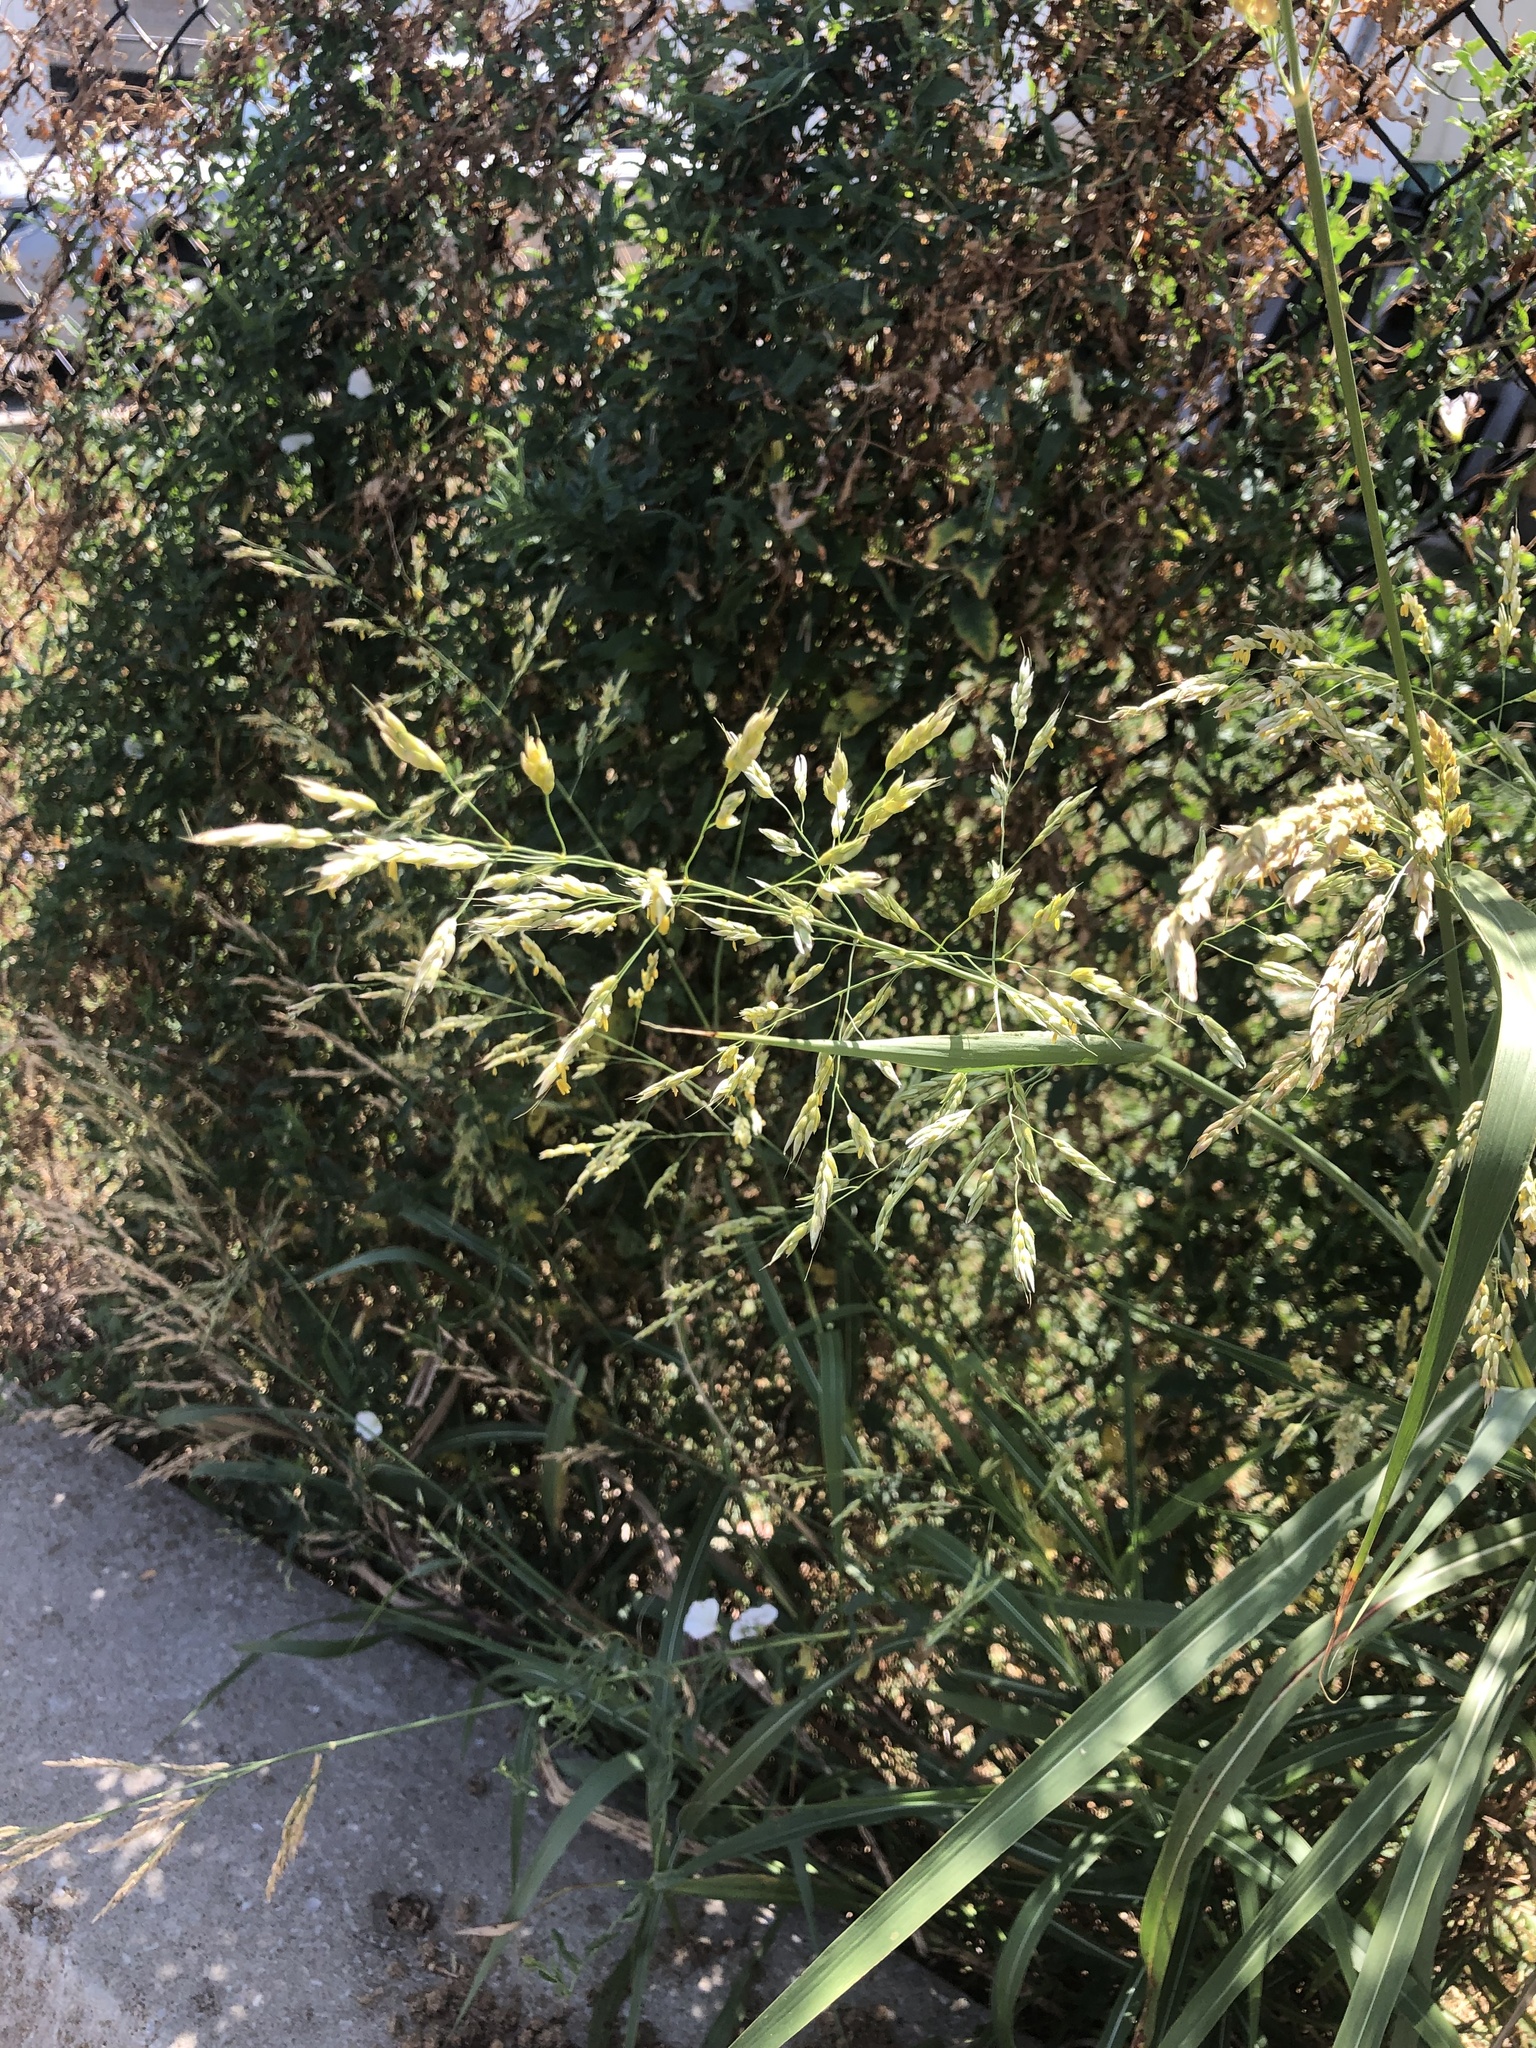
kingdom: Plantae
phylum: Tracheophyta
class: Liliopsida
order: Poales
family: Poaceae
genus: Sorghum
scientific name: Sorghum halepense
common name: Johnson-grass
